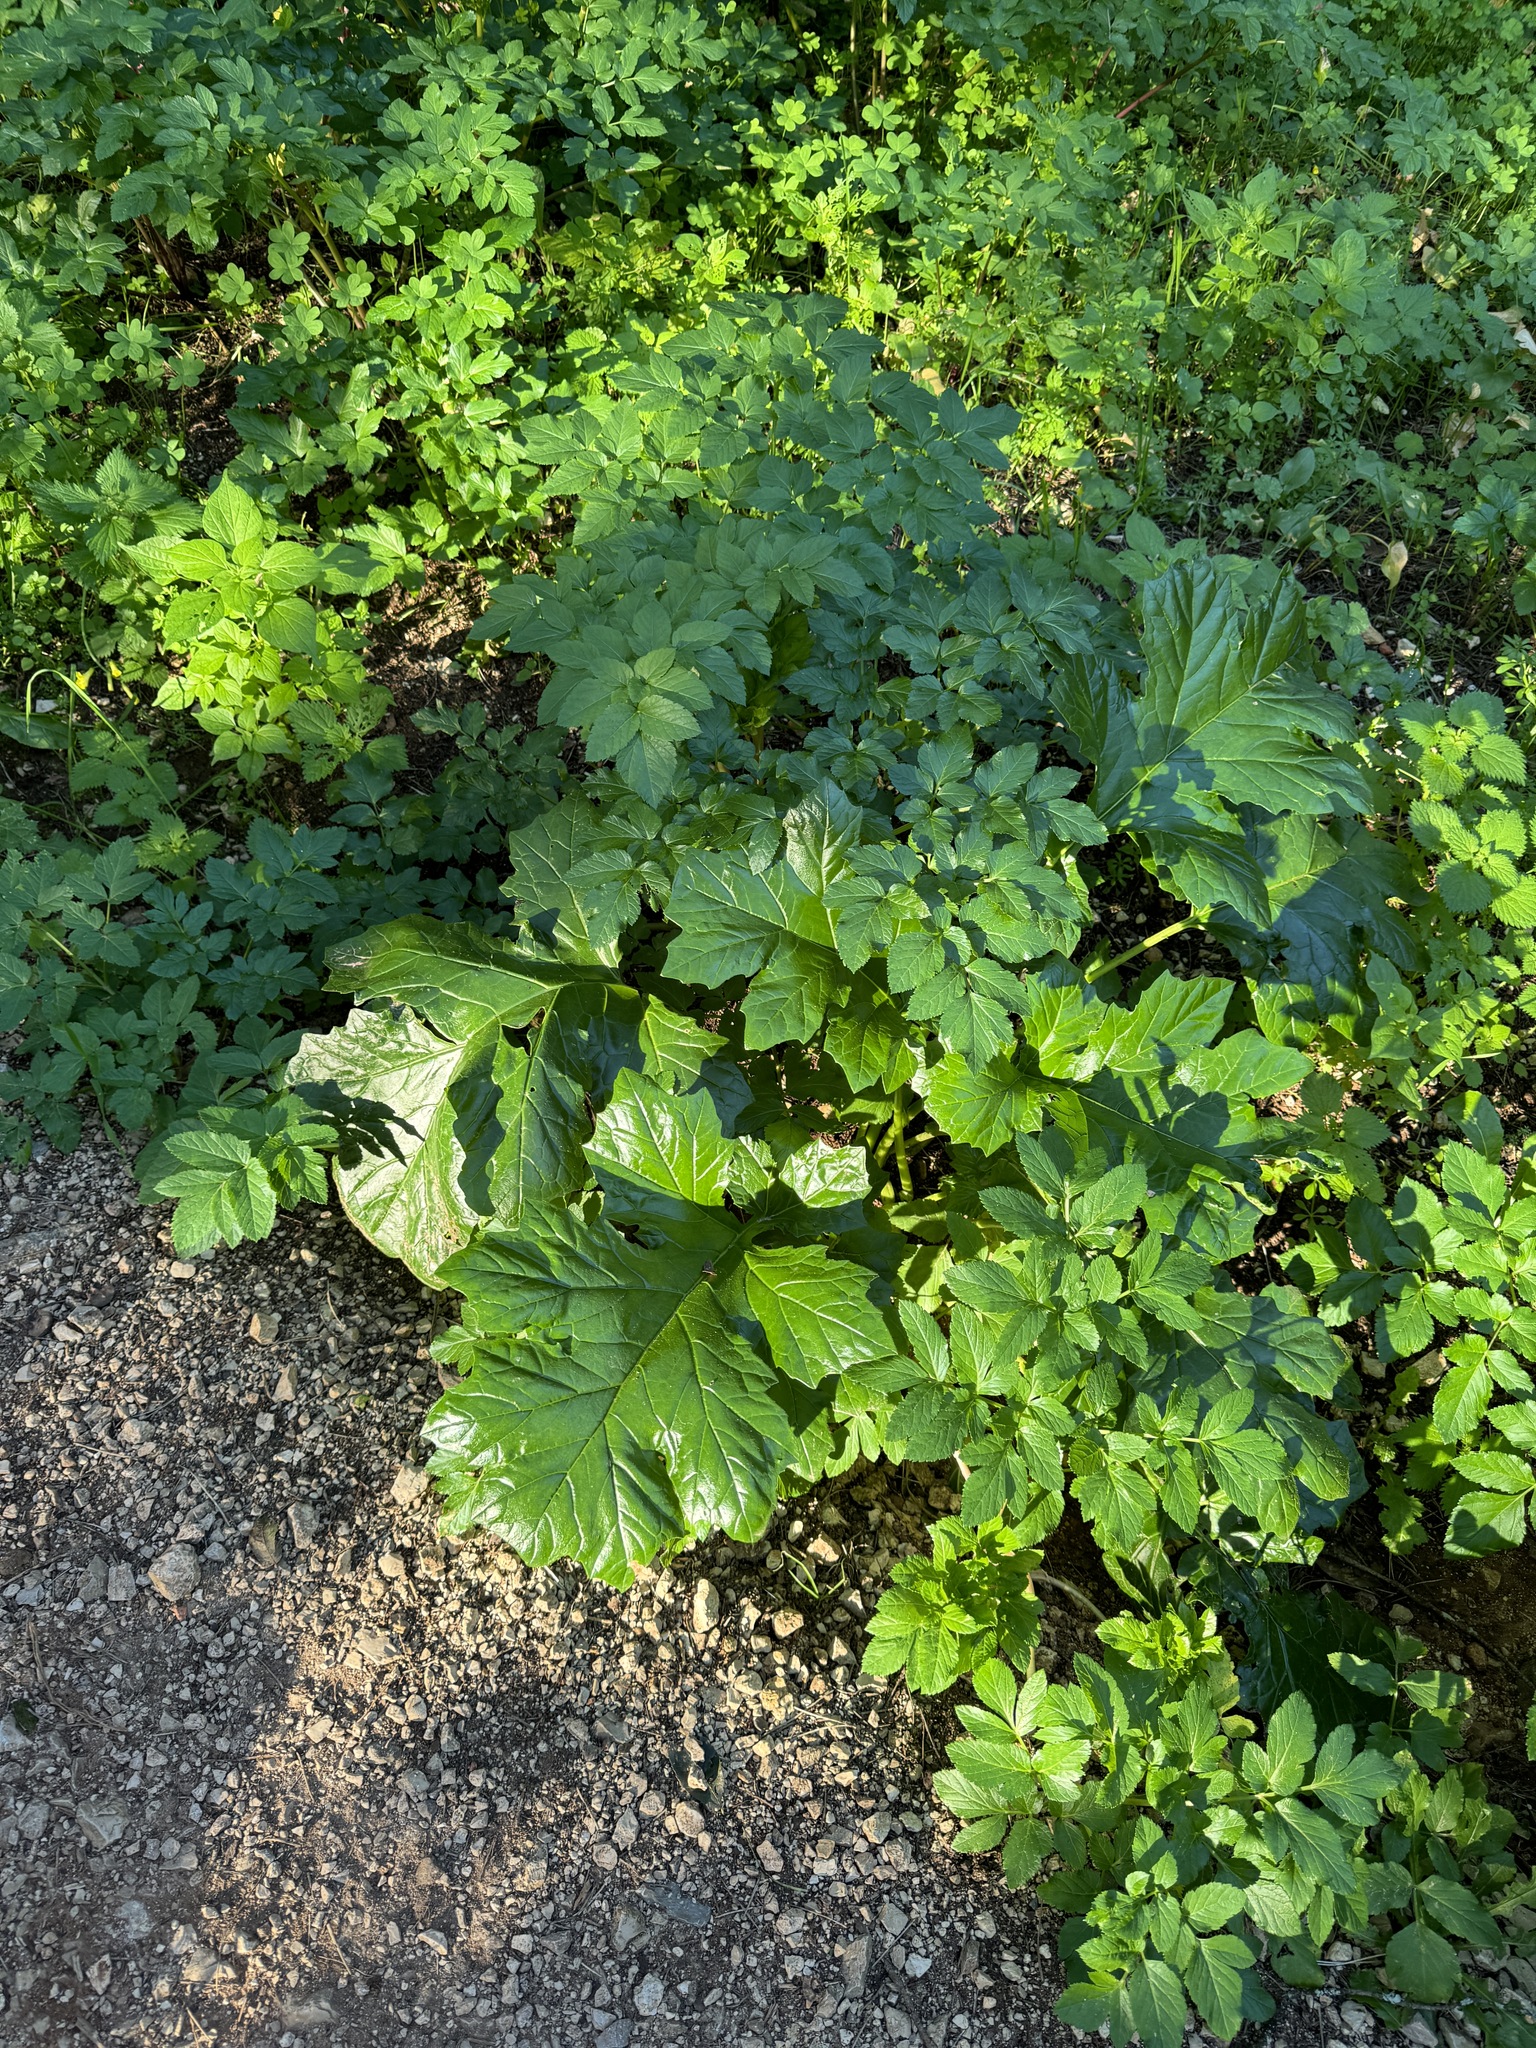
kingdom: Plantae
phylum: Tracheophyta
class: Magnoliopsida
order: Lamiales
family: Acanthaceae
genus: Acanthus
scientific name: Acanthus mollis
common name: Bear's-breech
